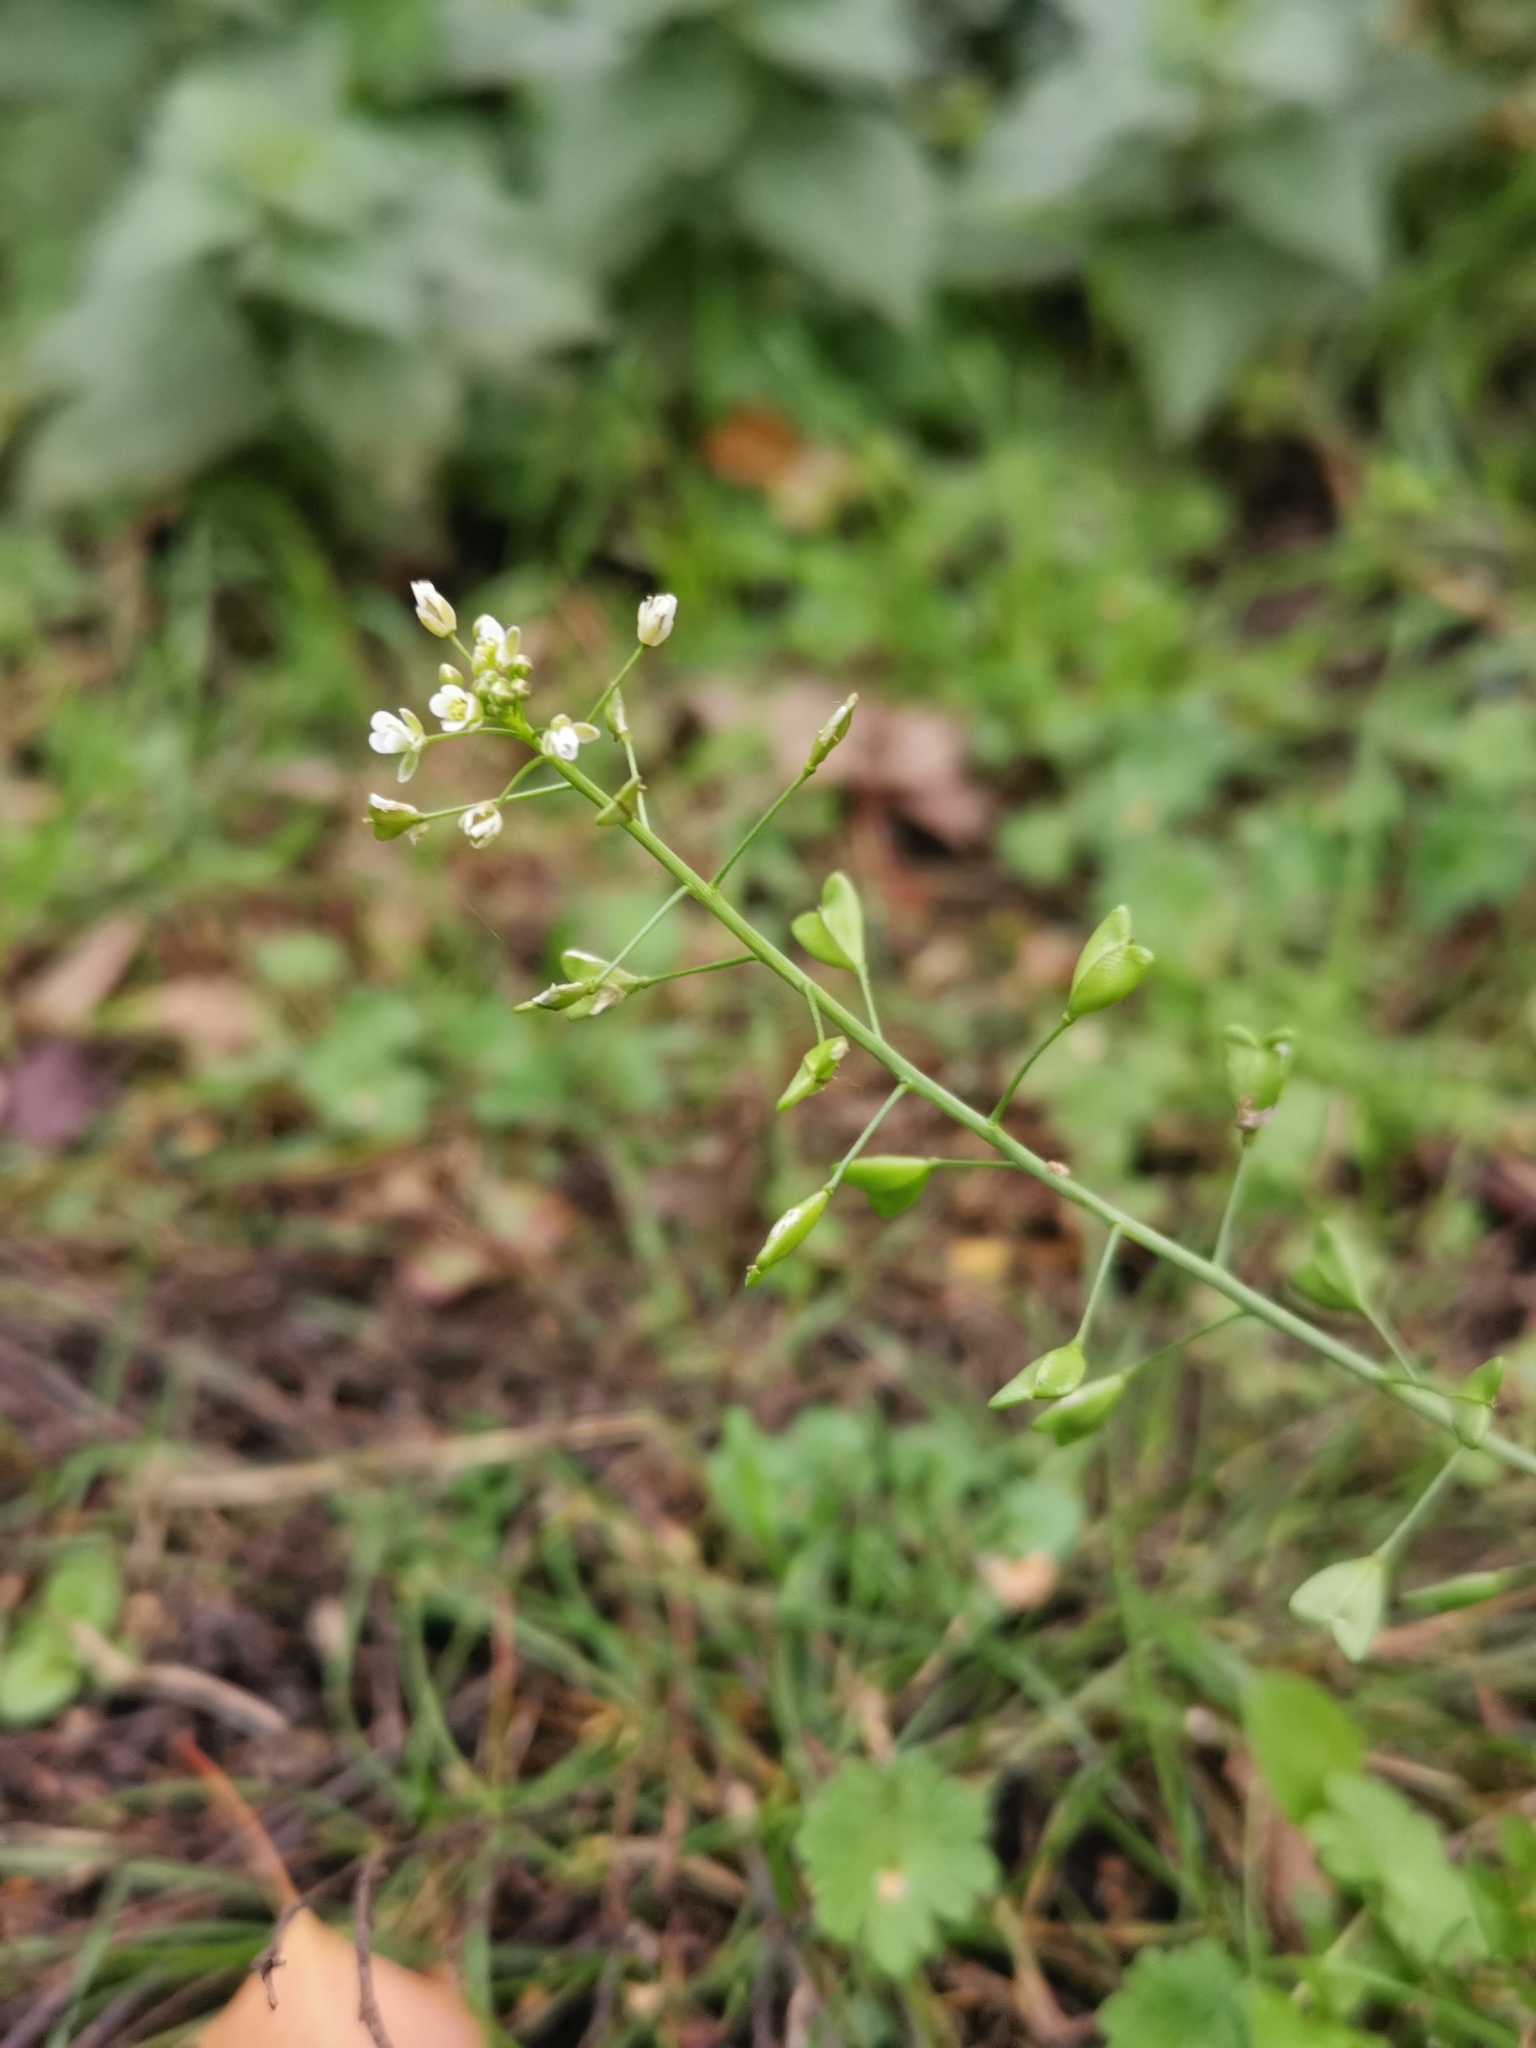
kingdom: Plantae
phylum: Tracheophyta
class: Magnoliopsida
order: Brassicales
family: Brassicaceae
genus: Capsella
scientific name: Capsella bursa-pastoris
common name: Shepherd's purse
